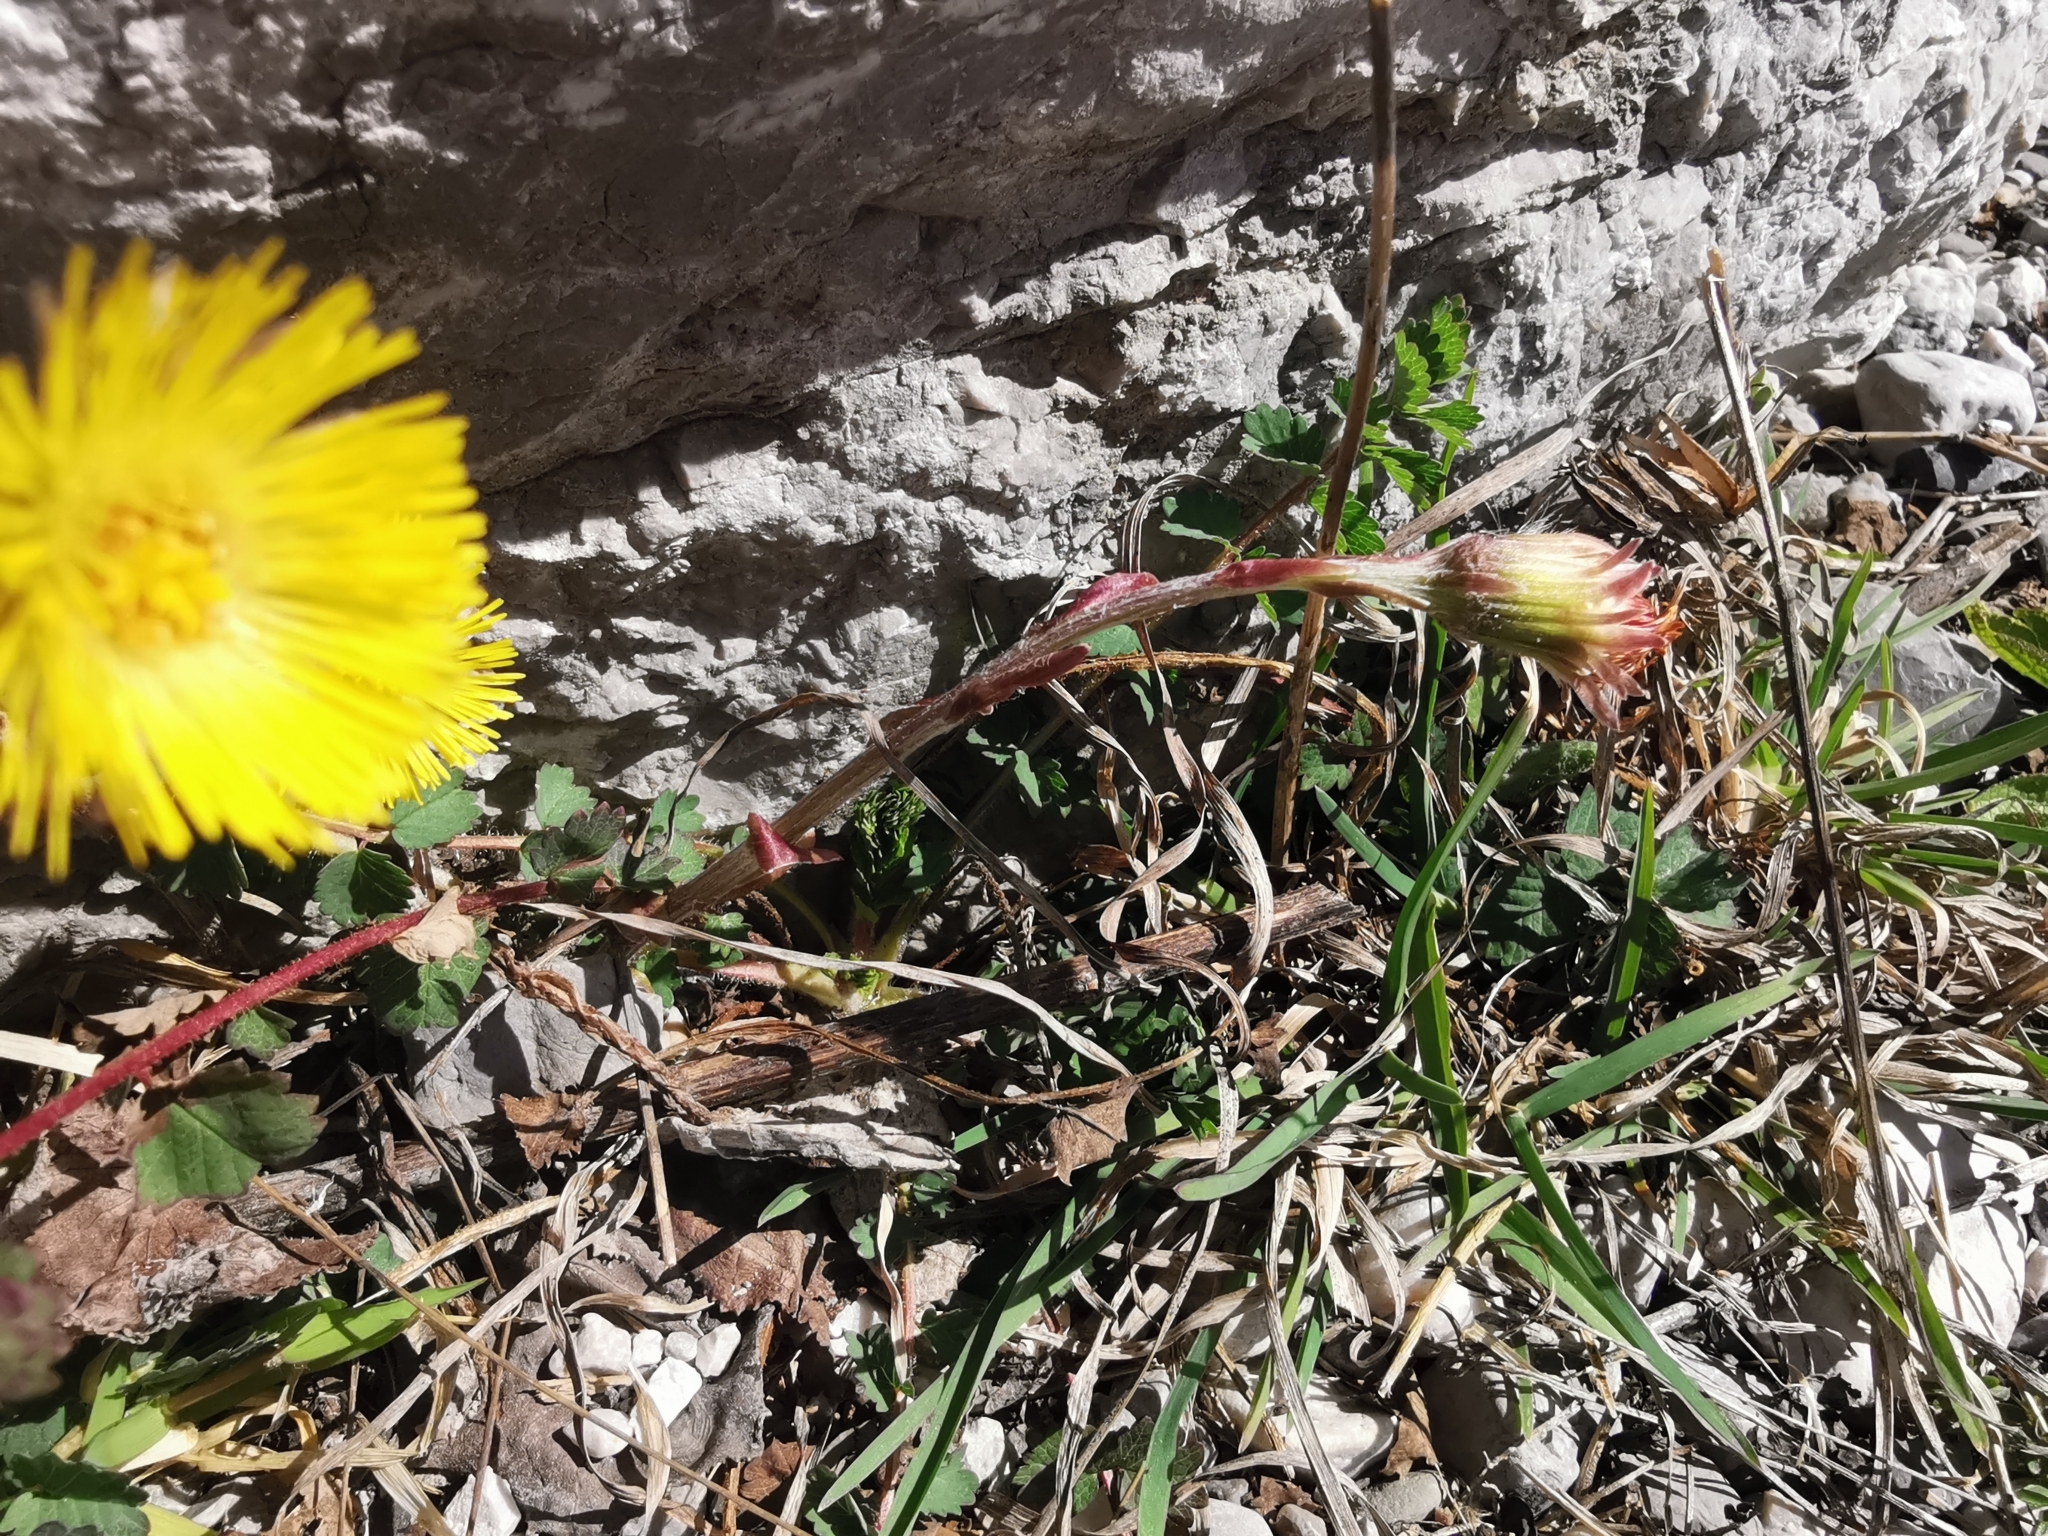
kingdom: Plantae
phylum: Tracheophyta
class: Magnoliopsida
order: Asterales
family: Asteraceae
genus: Tussilago
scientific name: Tussilago farfara
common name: Coltsfoot
